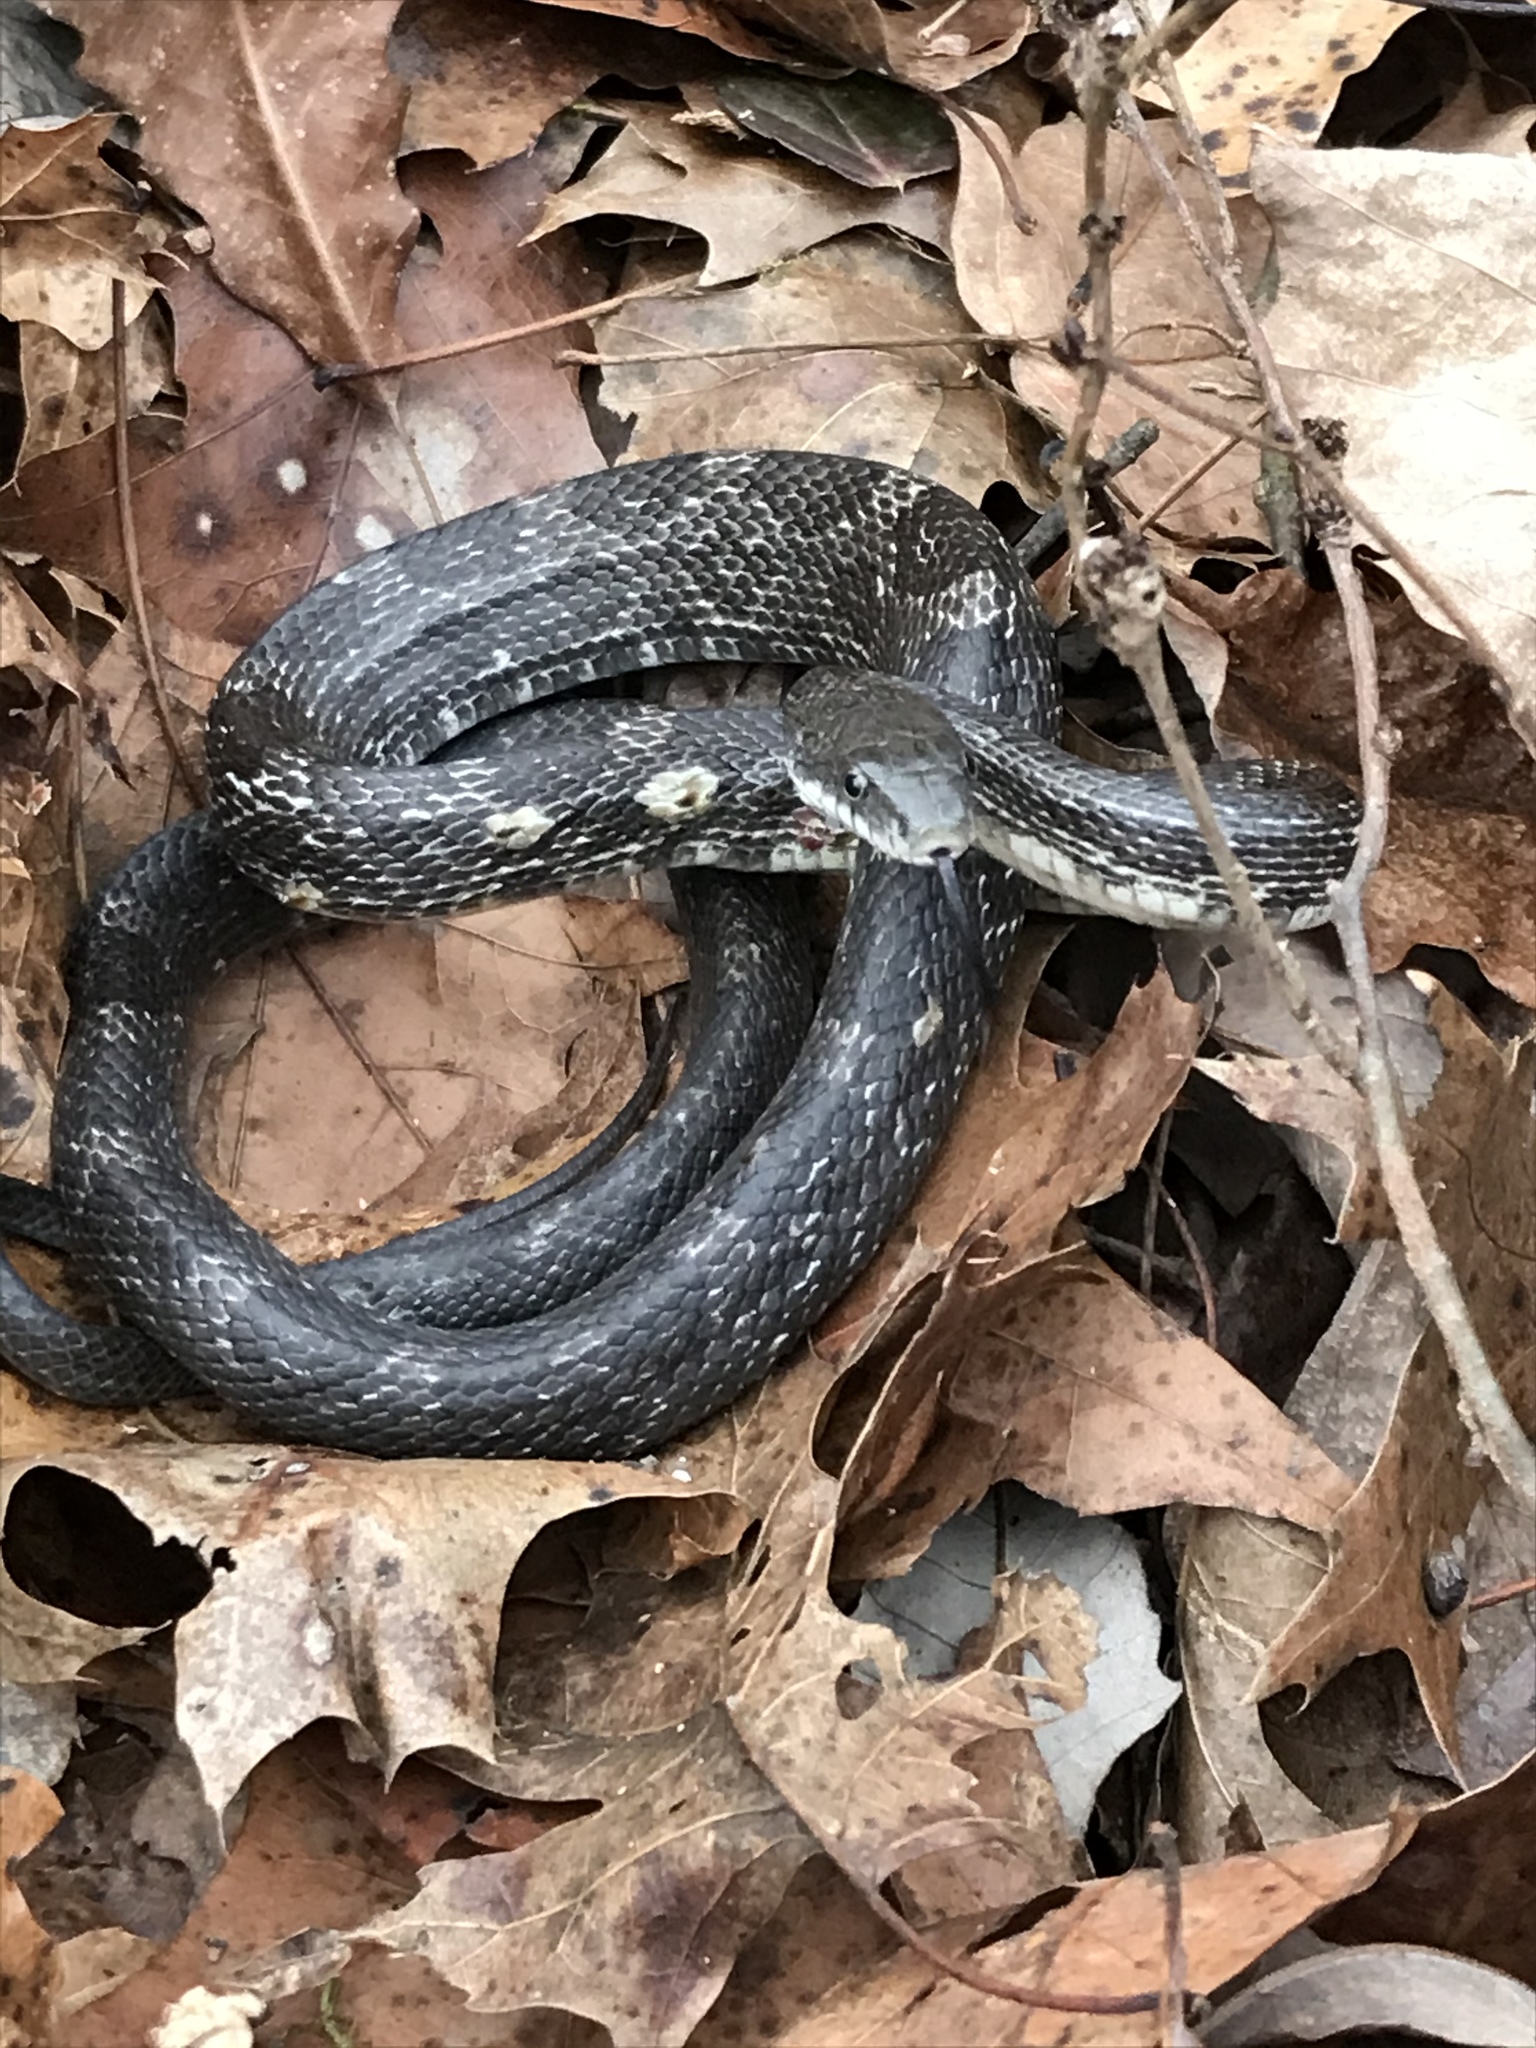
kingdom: Animalia
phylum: Chordata
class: Squamata
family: Colubridae
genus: Pantherophis
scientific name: Pantherophis spiloides
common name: Gray rat snake
